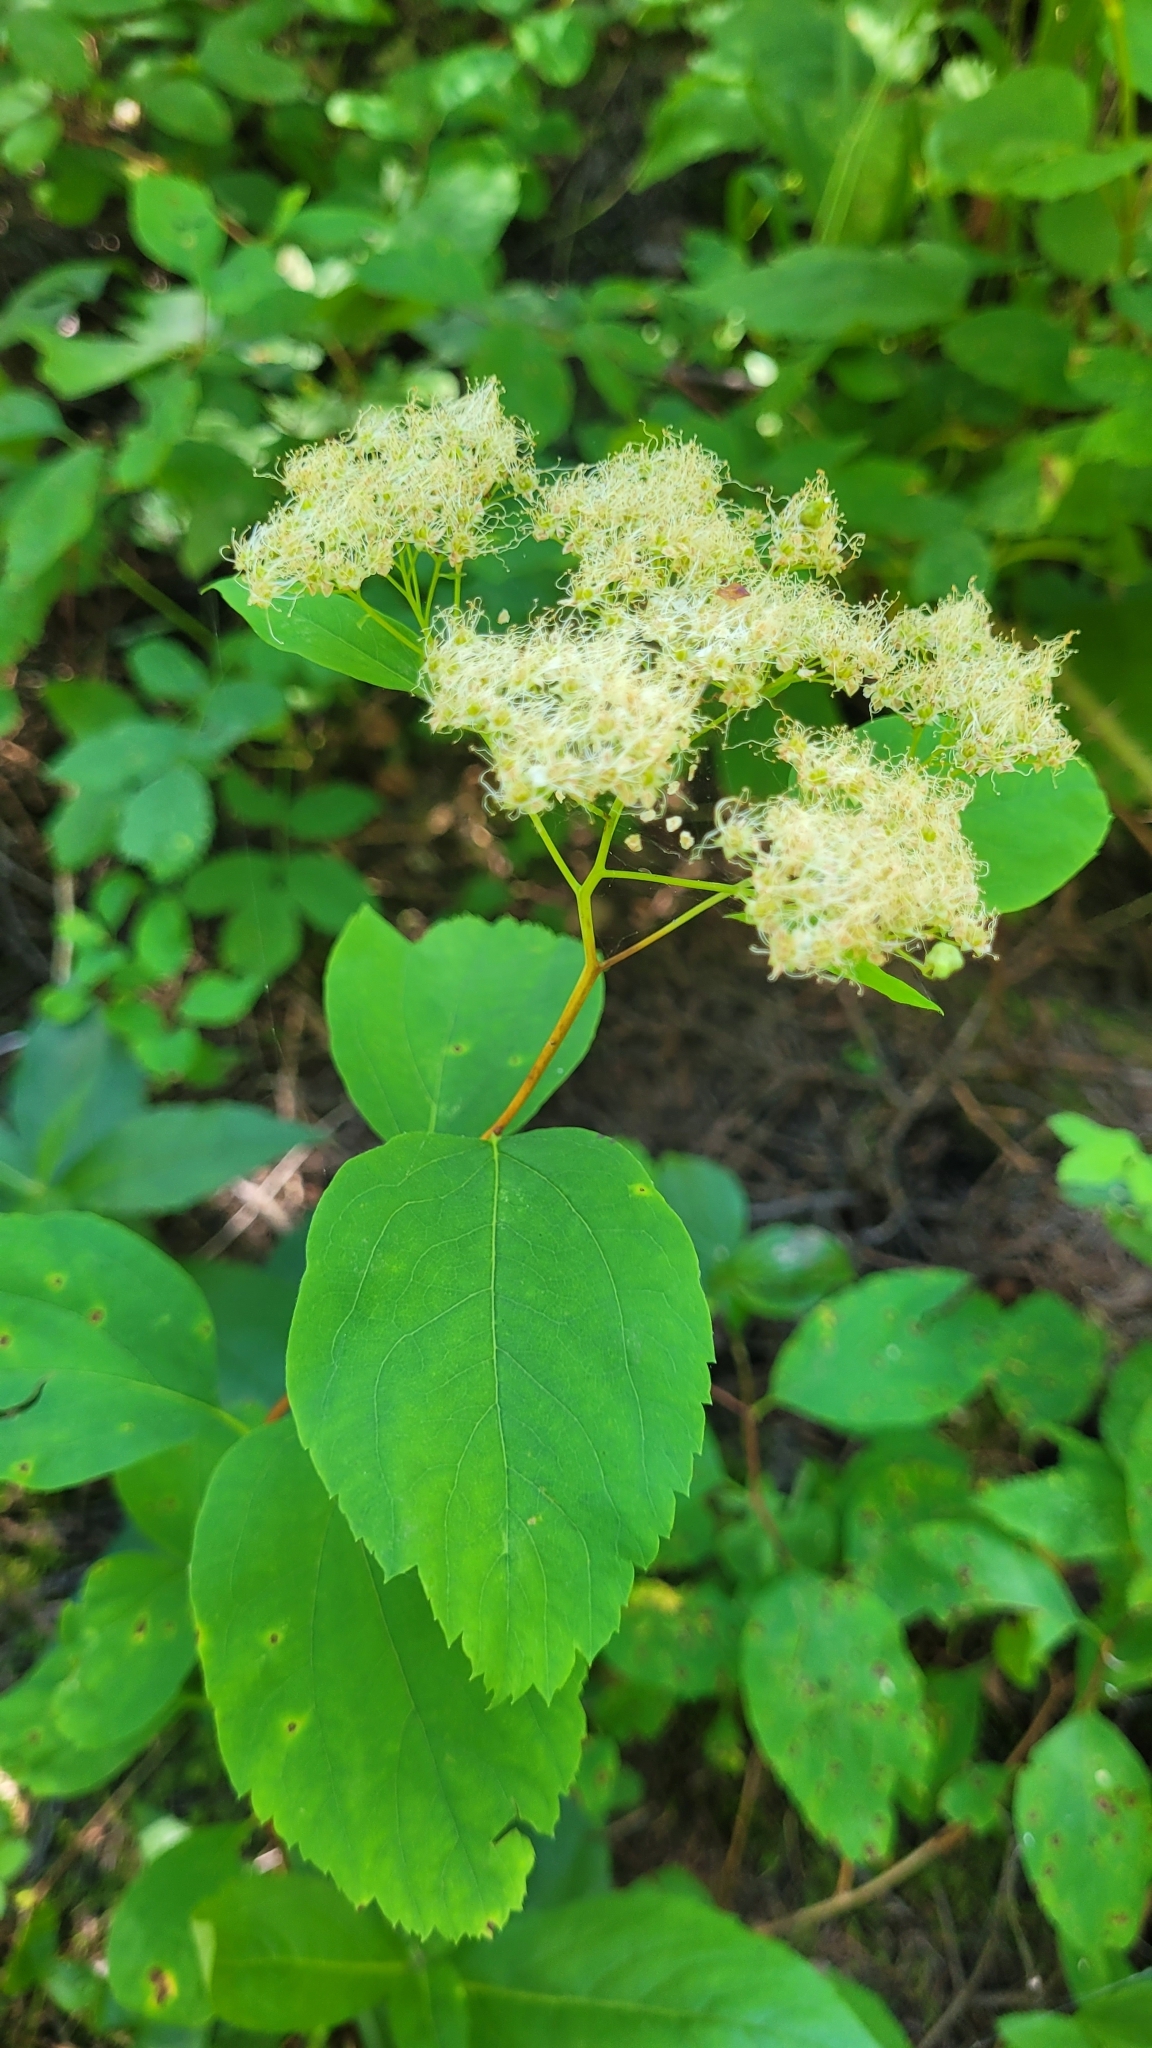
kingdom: Plantae
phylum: Tracheophyta
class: Magnoliopsida
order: Rosales
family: Rosaceae
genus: Spiraea
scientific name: Spiraea lucida
